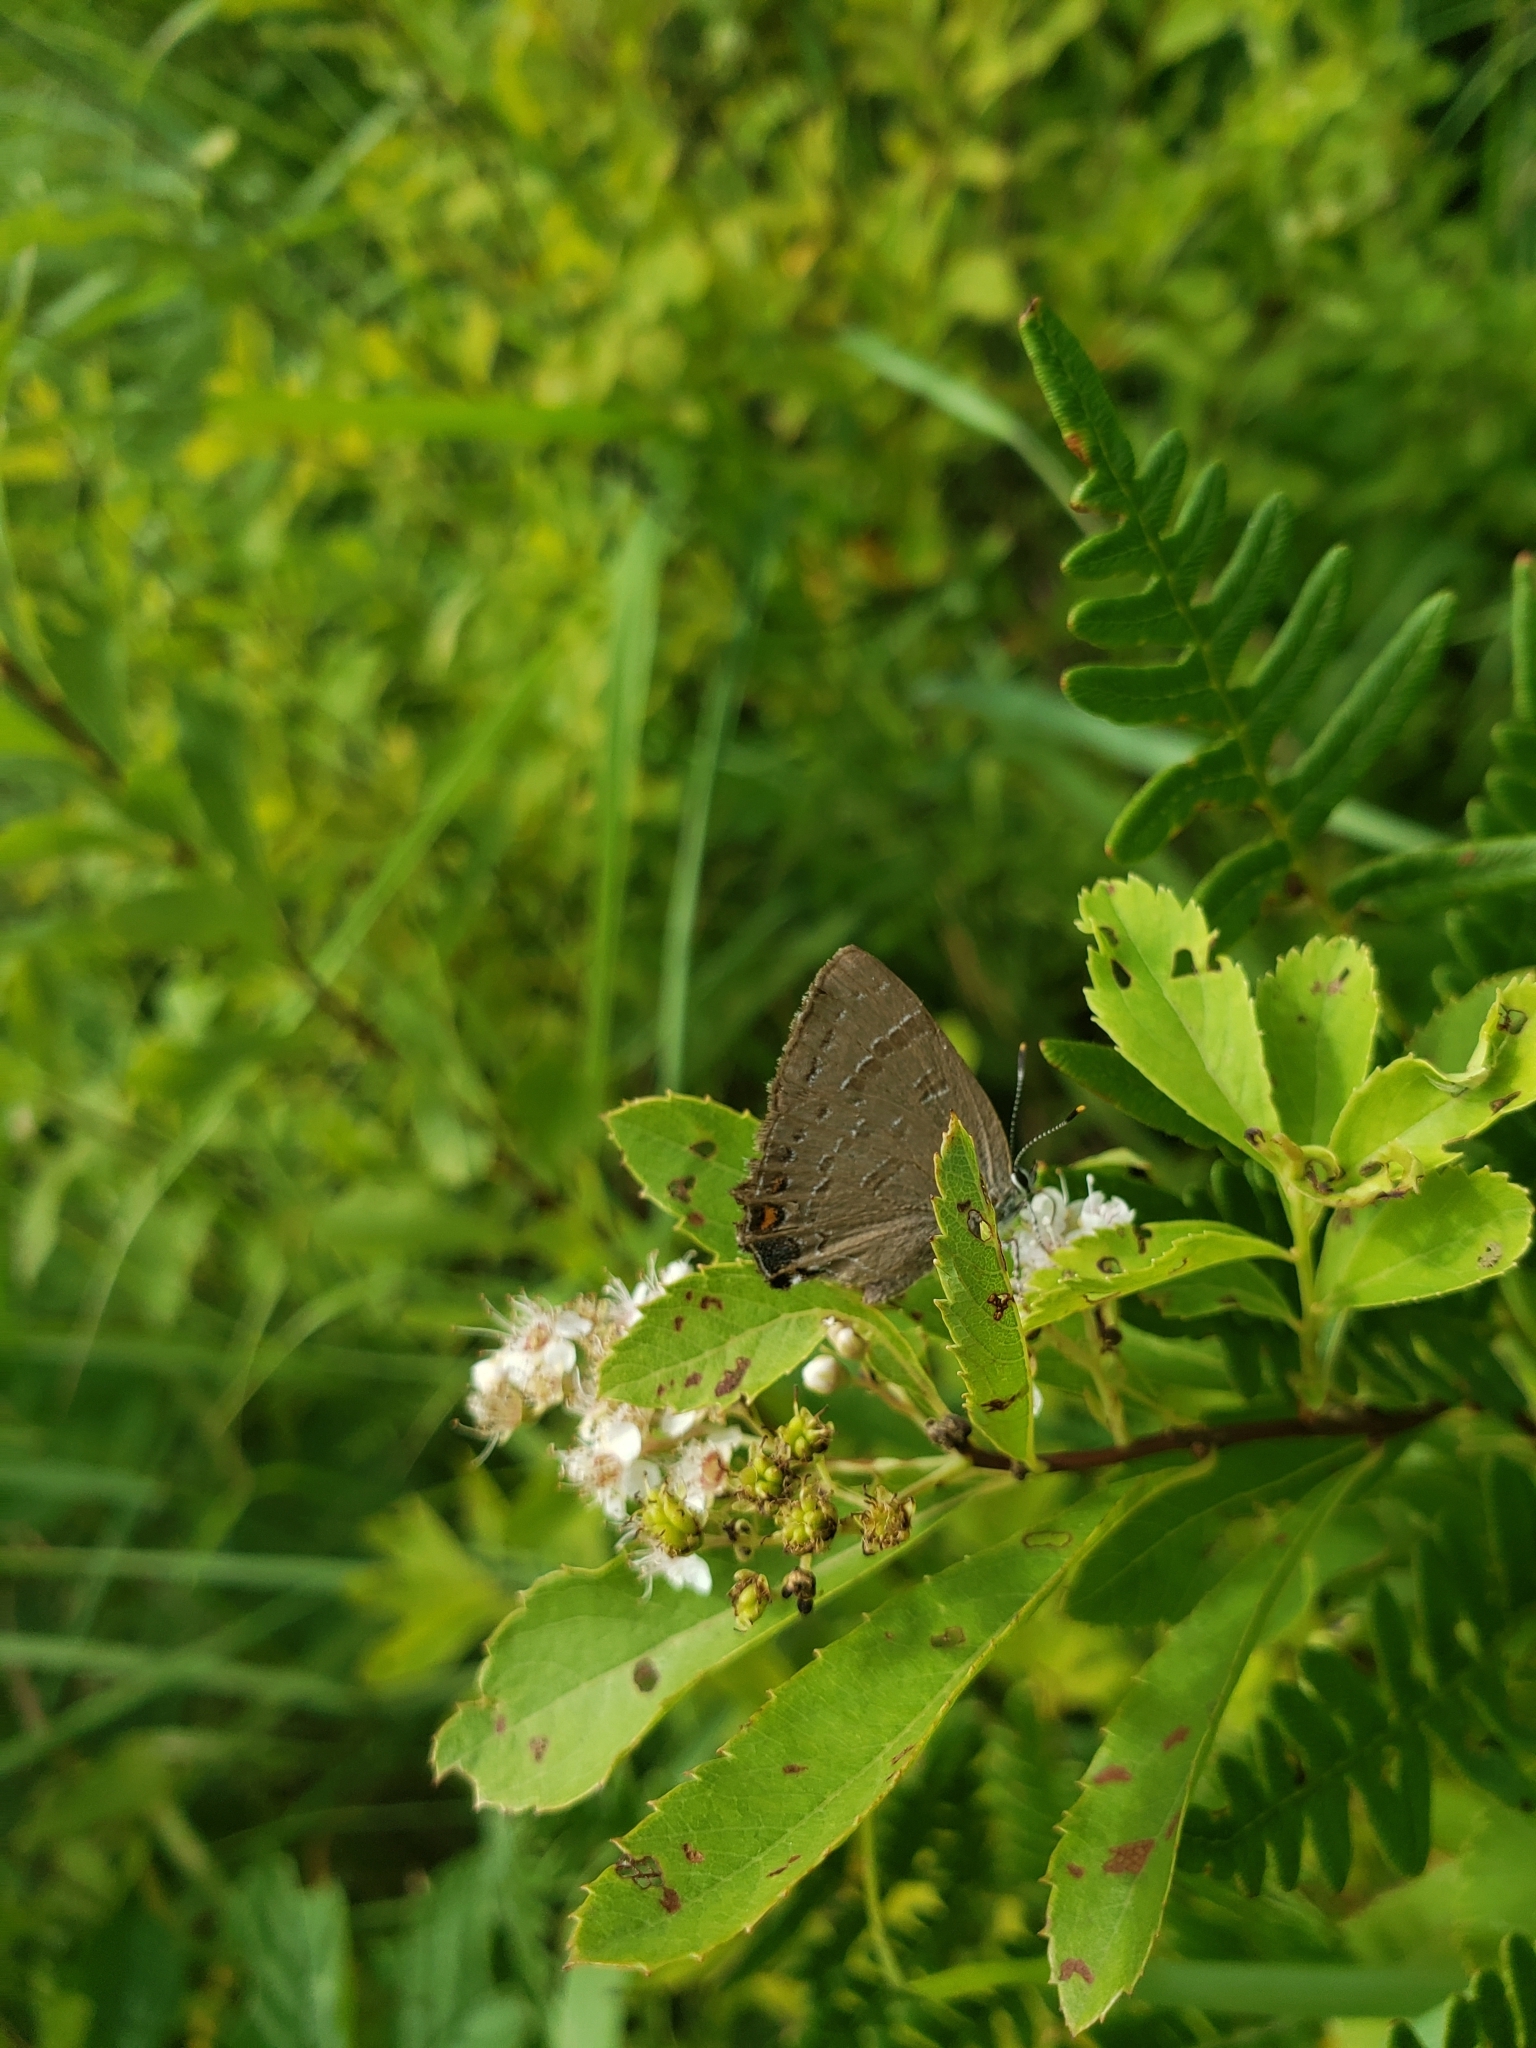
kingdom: Animalia
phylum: Arthropoda
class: Insecta
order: Lepidoptera
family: Lycaenidae
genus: Satyrium
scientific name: Satyrium calanus
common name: Banded hairstreak
